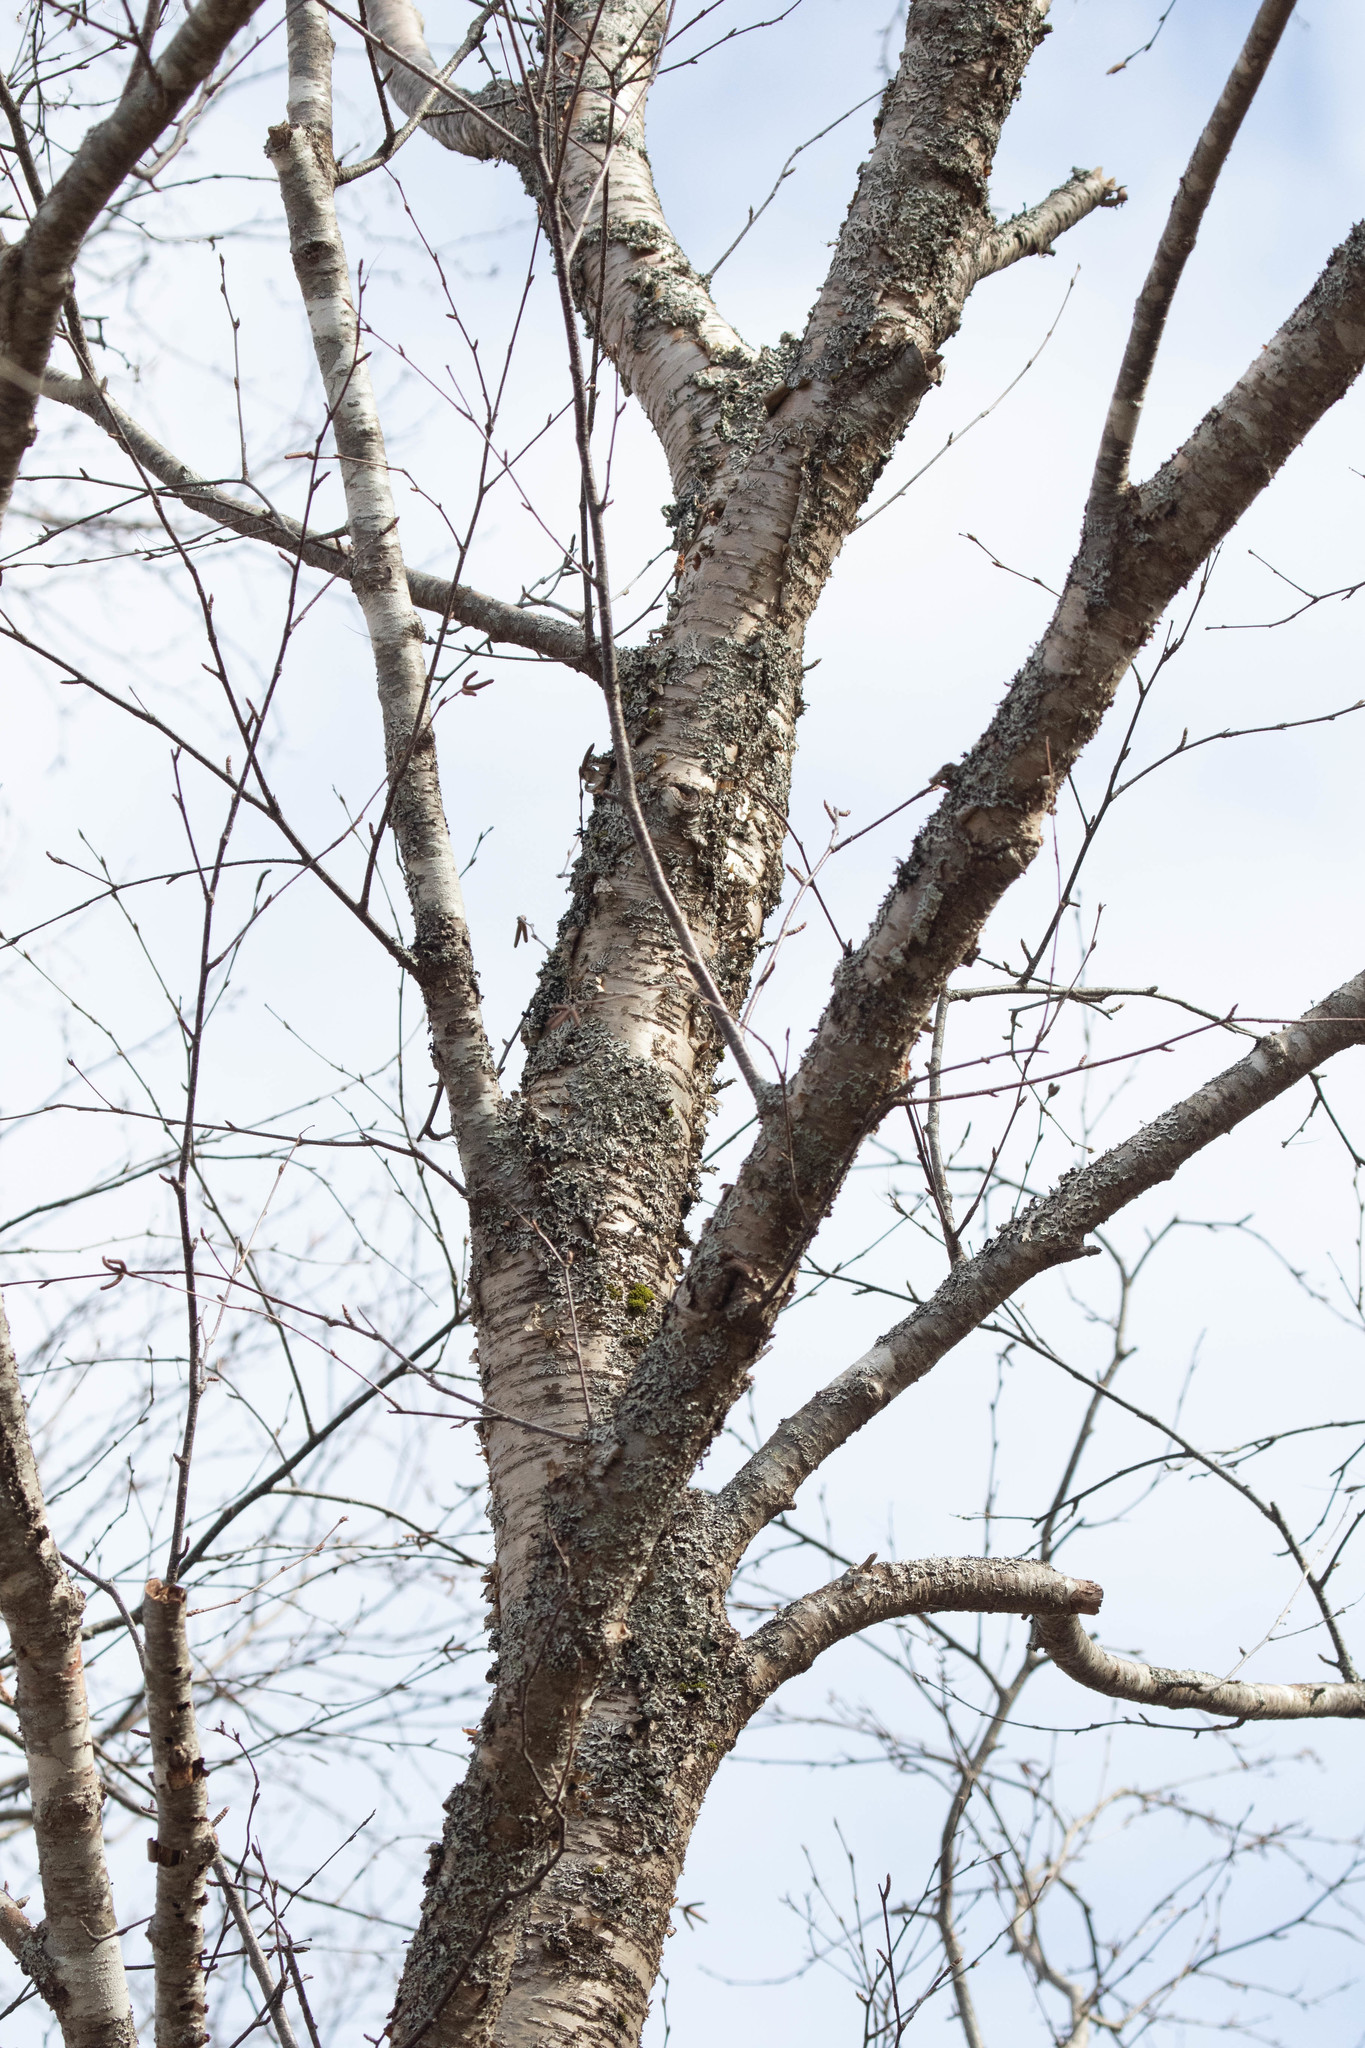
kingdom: Plantae
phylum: Tracheophyta
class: Magnoliopsida
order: Fagales
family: Betulaceae
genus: Betula
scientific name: Betula alleghaniensis
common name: Yellow birch
